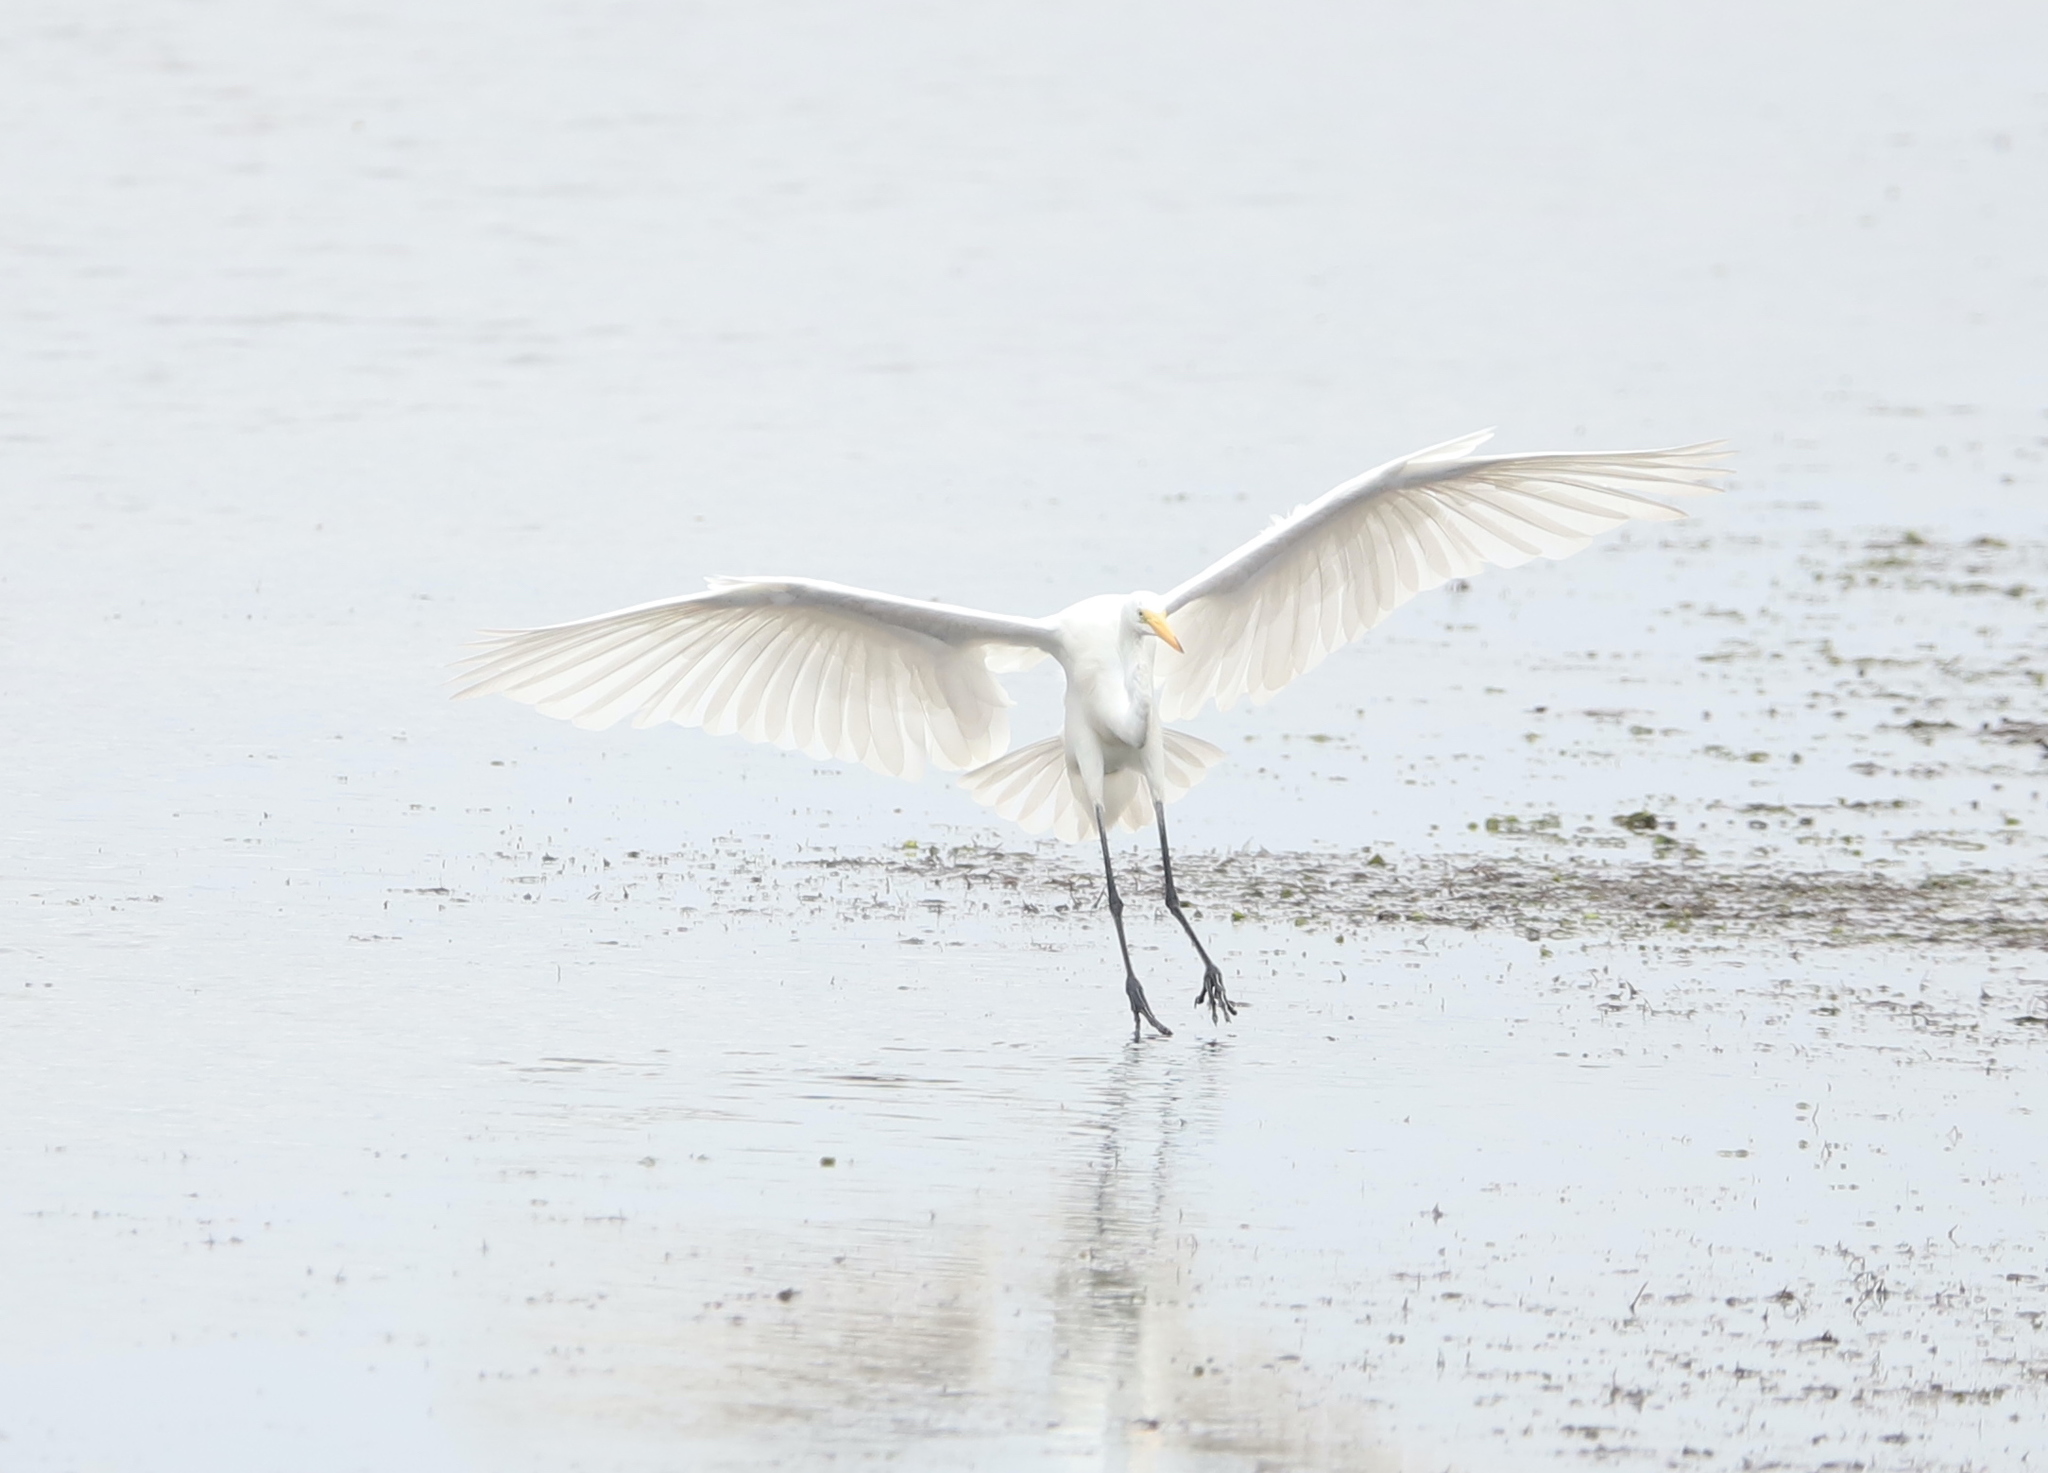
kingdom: Animalia
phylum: Chordata
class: Aves
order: Pelecaniformes
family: Ardeidae
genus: Ardea
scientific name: Ardea alba
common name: Great egret
